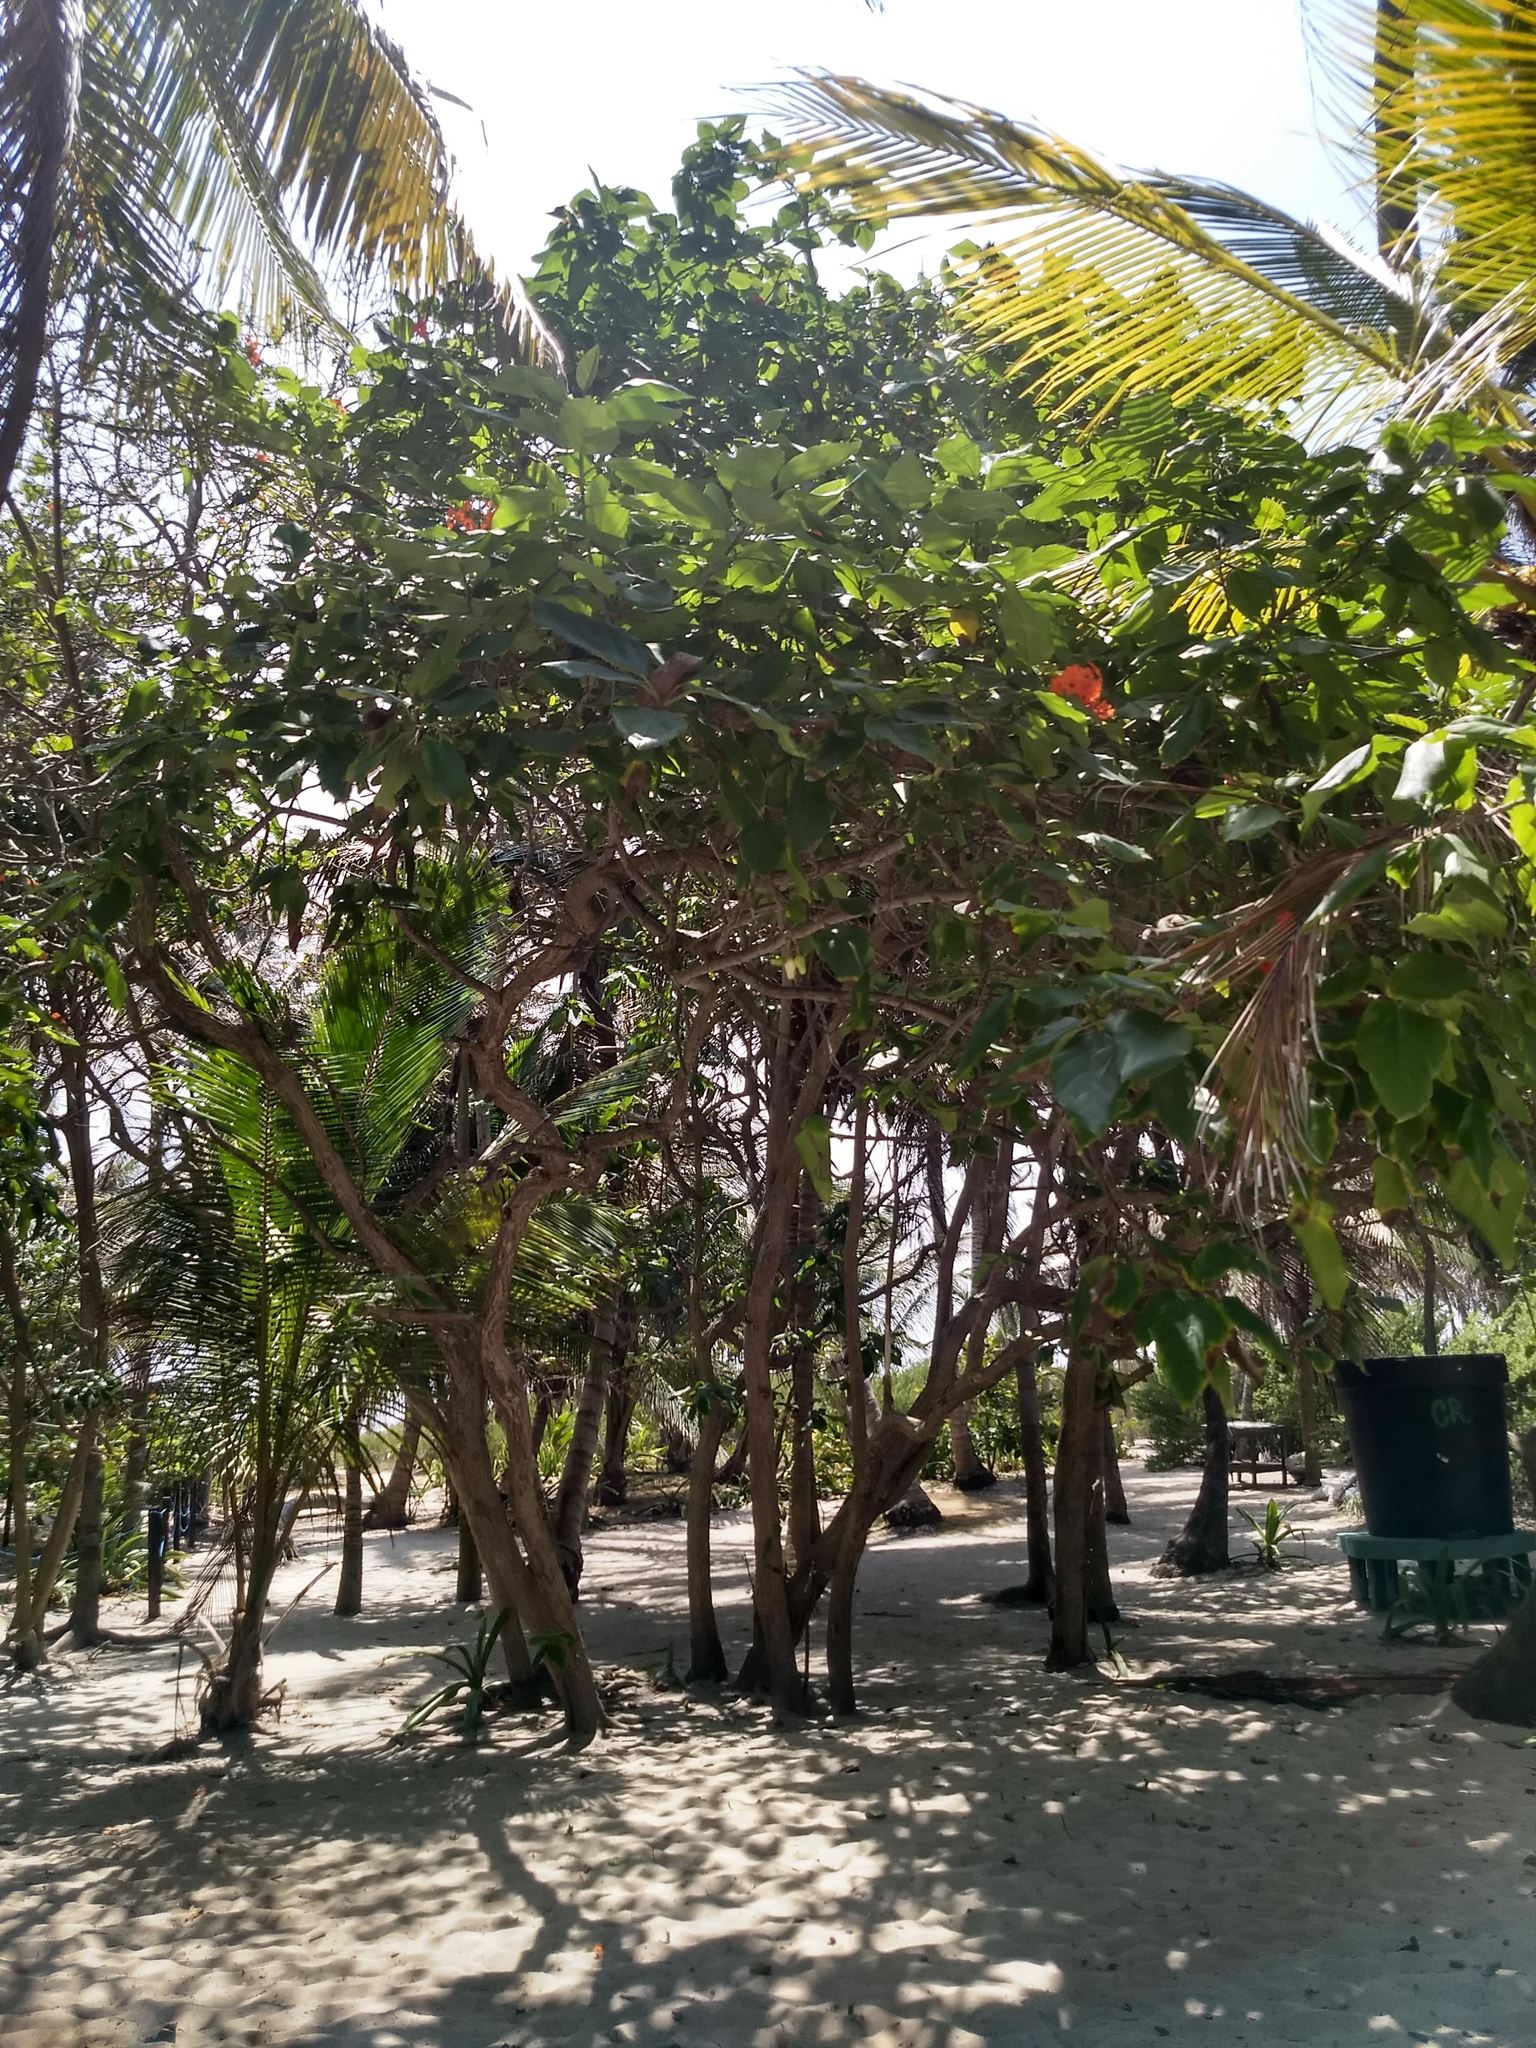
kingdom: Plantae
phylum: Tracheophyta
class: Magnoliopsida
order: Boraginales
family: Cordiaceae
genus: Cordia
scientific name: Cordia sebestena
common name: Largeleaf geigertree
